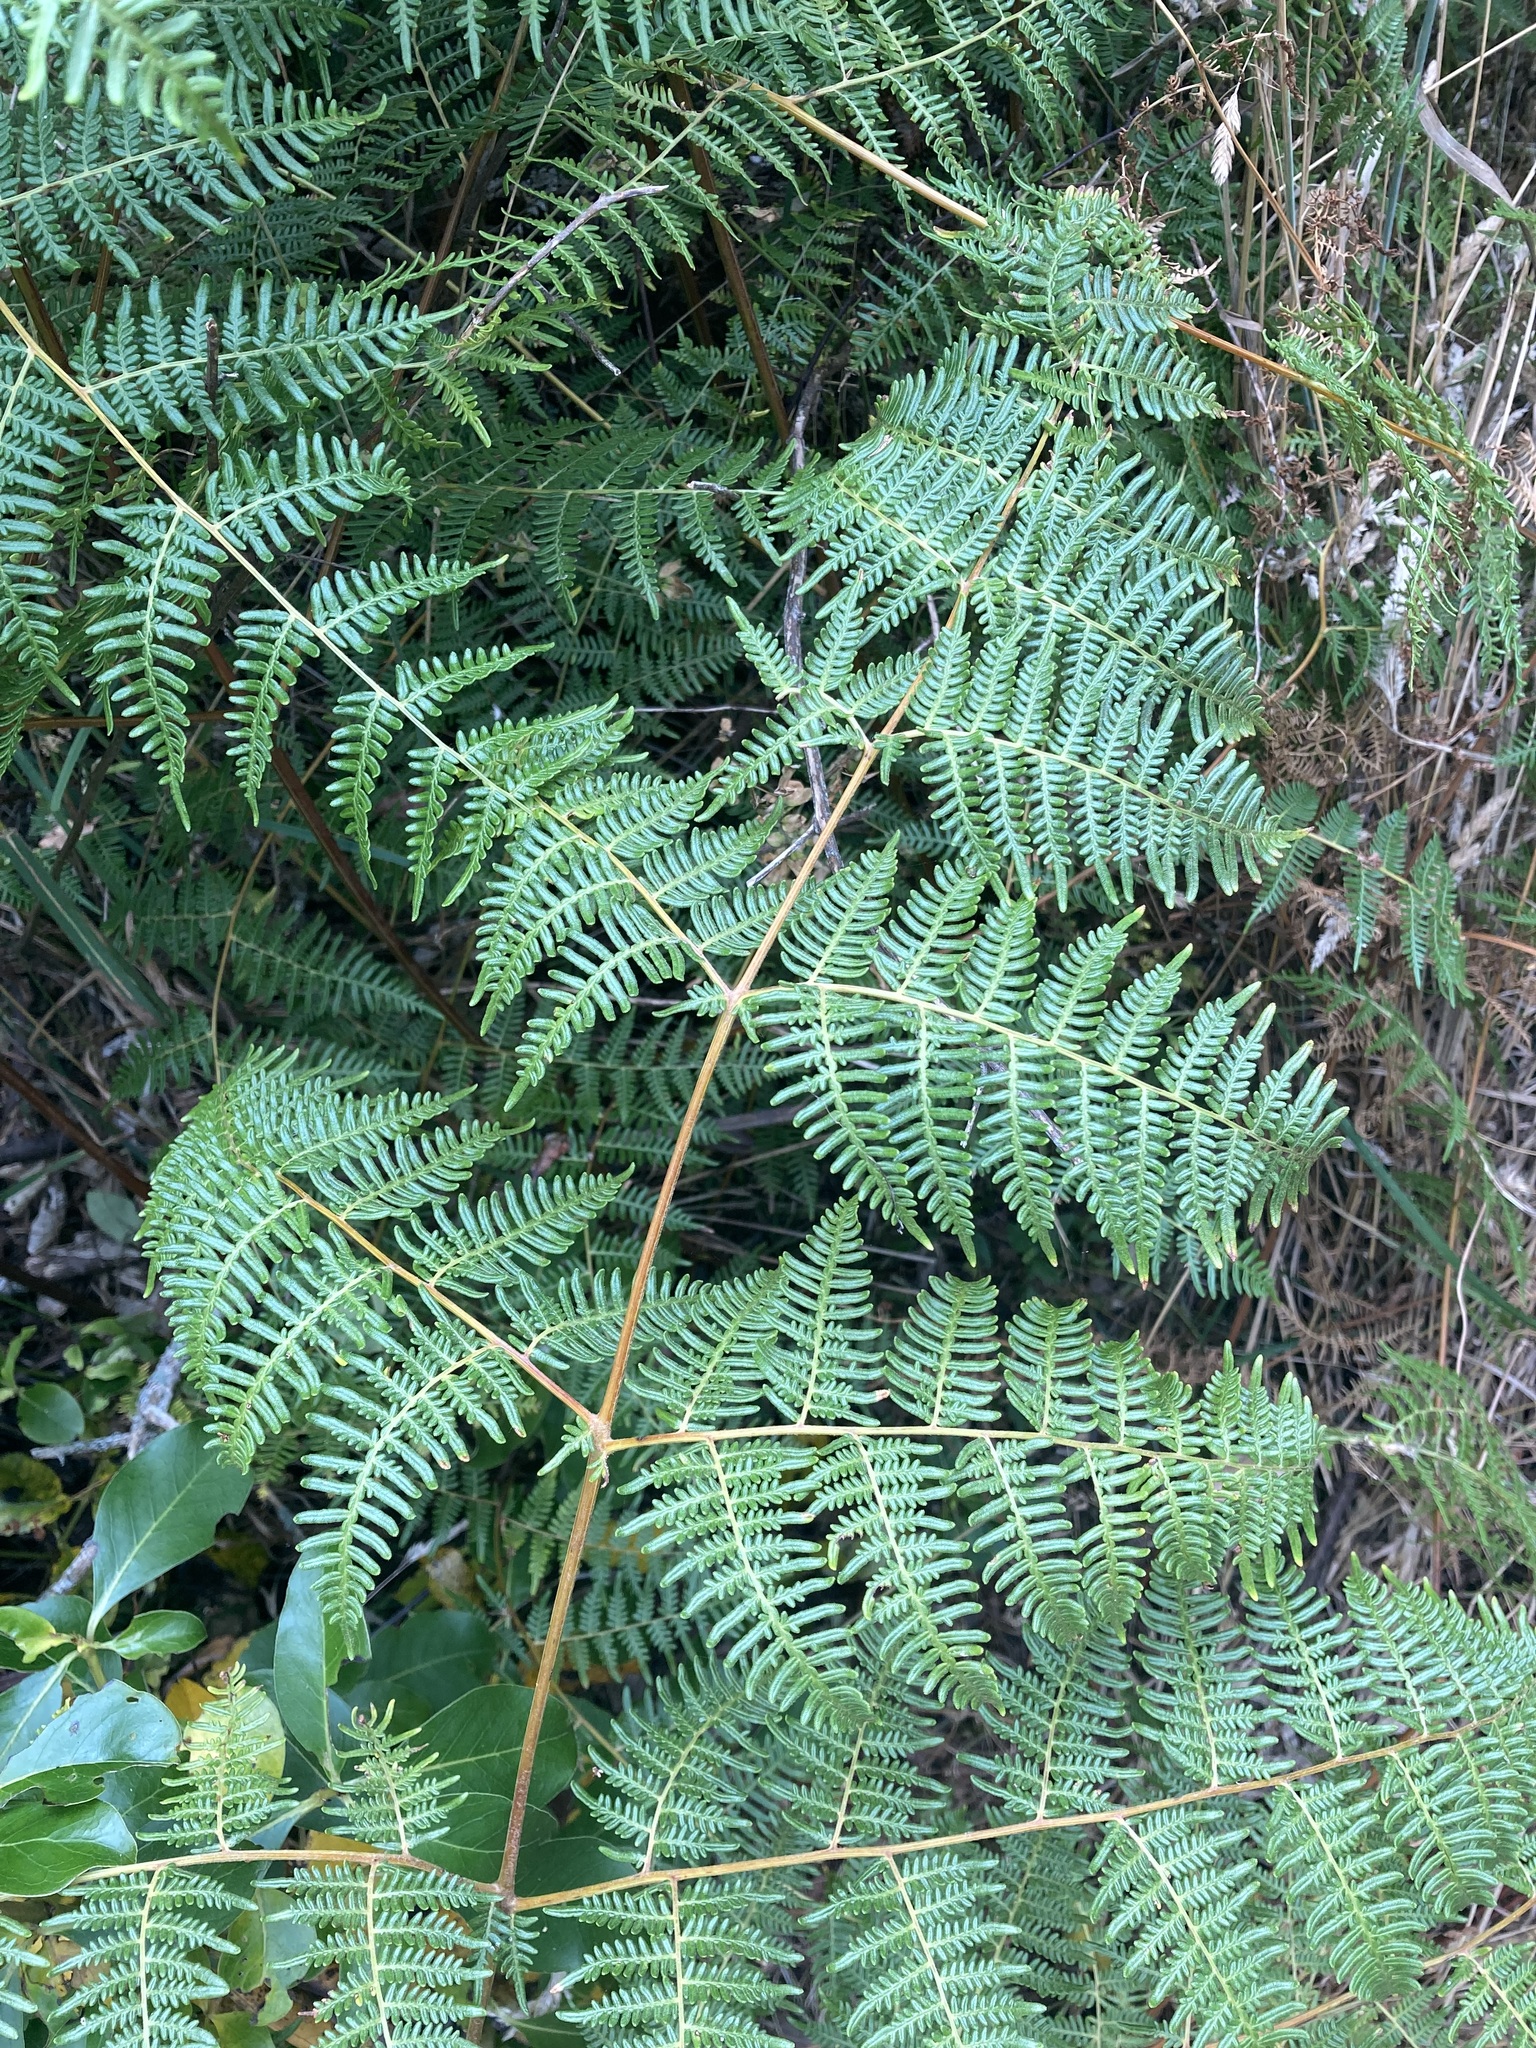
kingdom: Plantae
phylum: Tracheophyta
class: Polypodiopsida
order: Polypodiales
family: Dennstaedtiaceae
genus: Pteridium
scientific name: Pteridium esculentum
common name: Bracken fern
